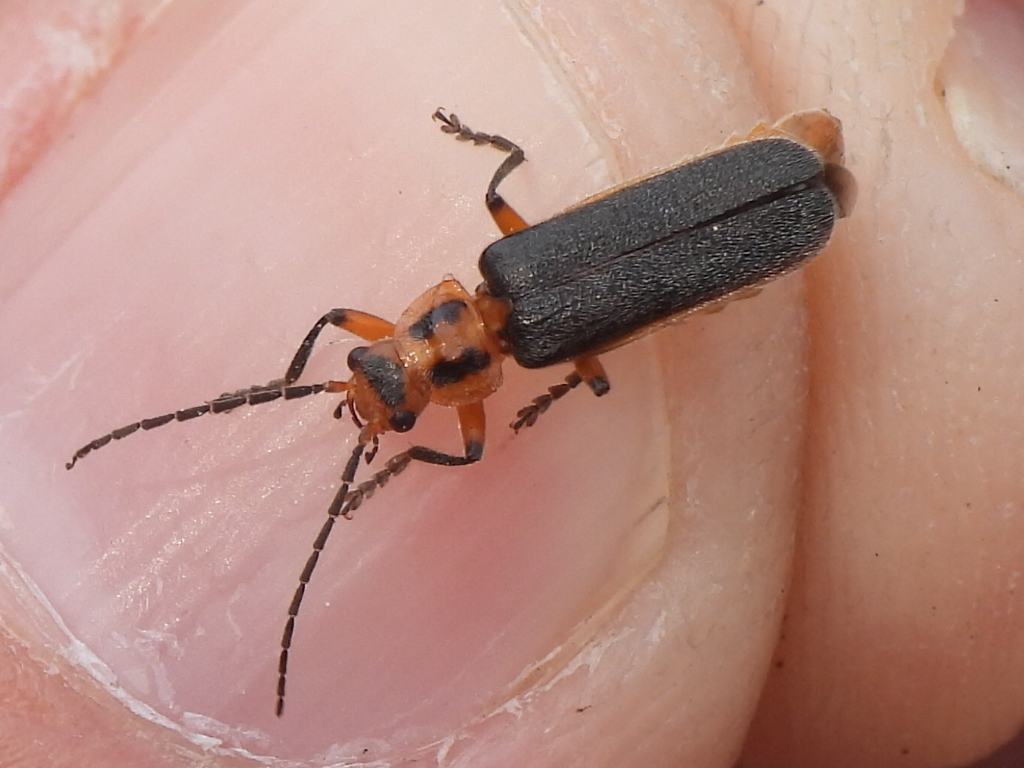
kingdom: Animalia
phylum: Arthropoda
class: Insecta
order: Coleoptera
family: Cantharidae
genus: Atalantycha
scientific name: Atalantycha bilineata
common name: Two-lined leatherwing
